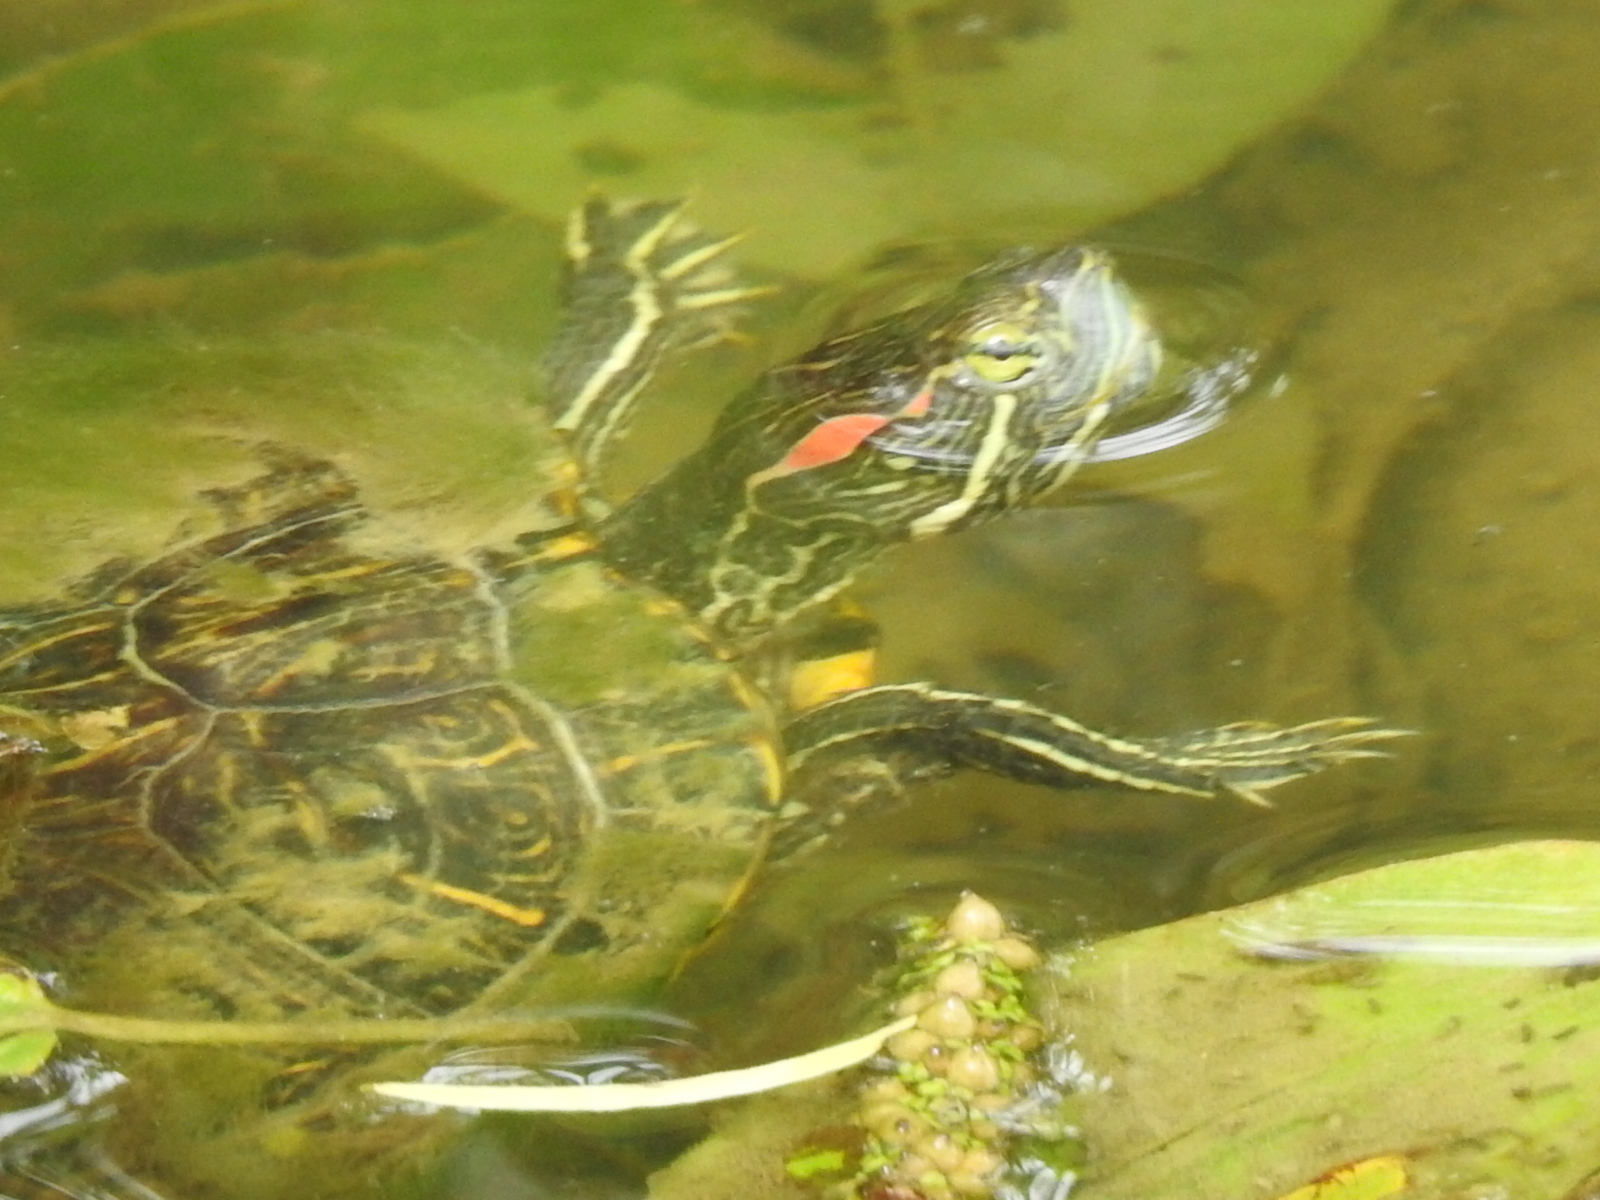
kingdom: Animalia
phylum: Chordata
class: Testudines
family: Emydidae
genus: Trachemys
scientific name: Trachemys scripta
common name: Slider
